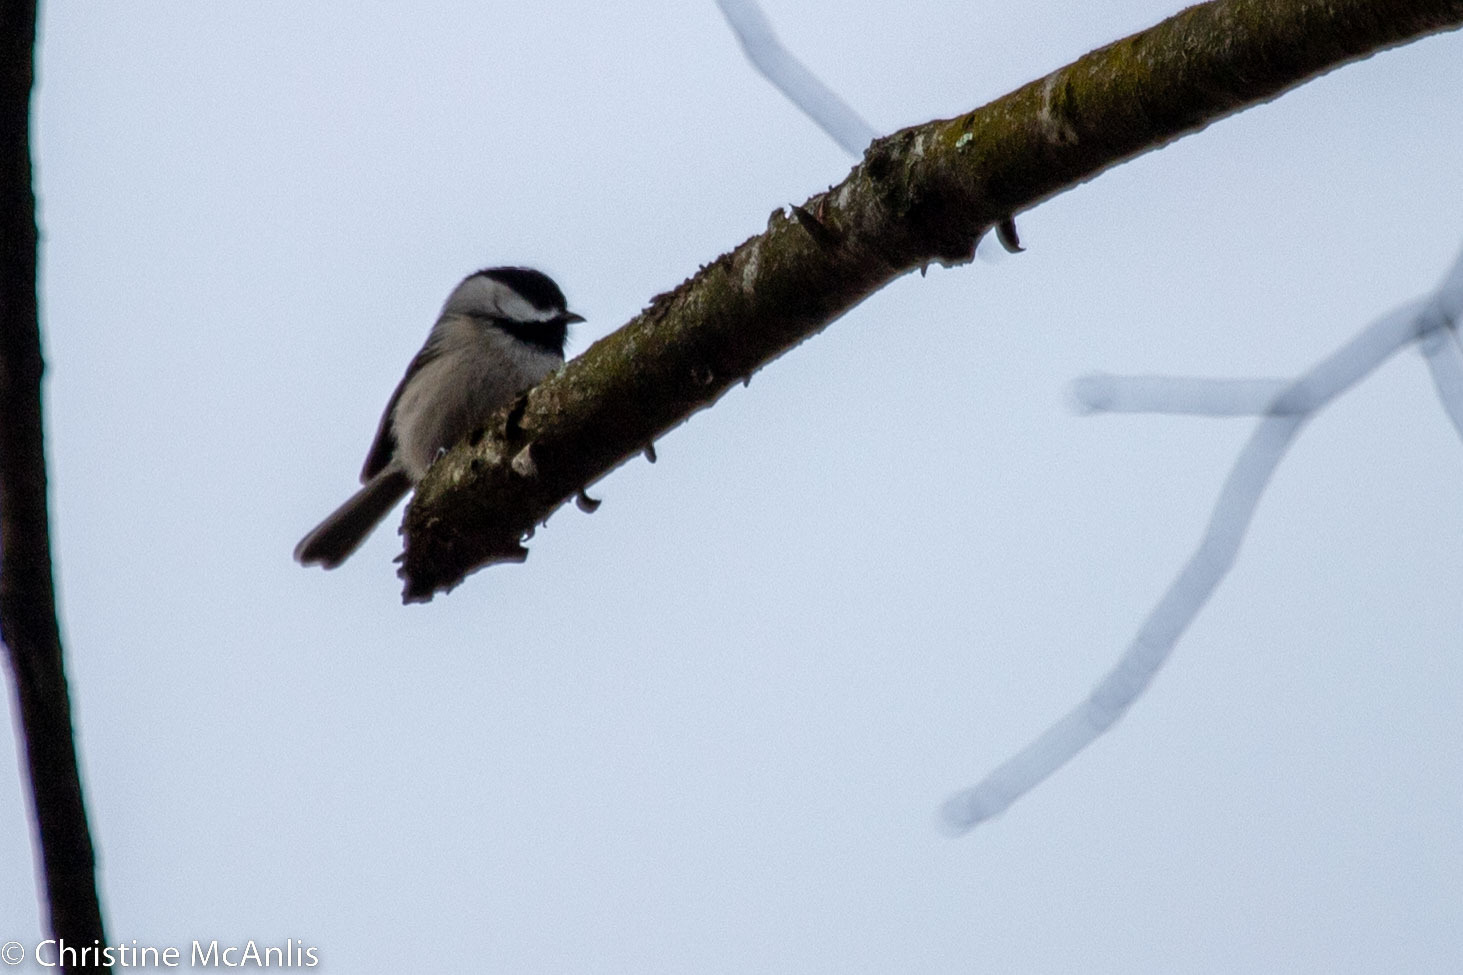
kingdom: Animalia
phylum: Chordata
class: Aves
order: Passeriformes
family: Paridae
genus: Poecile
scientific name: Poecile carolinensis
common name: Carolina chickadee
